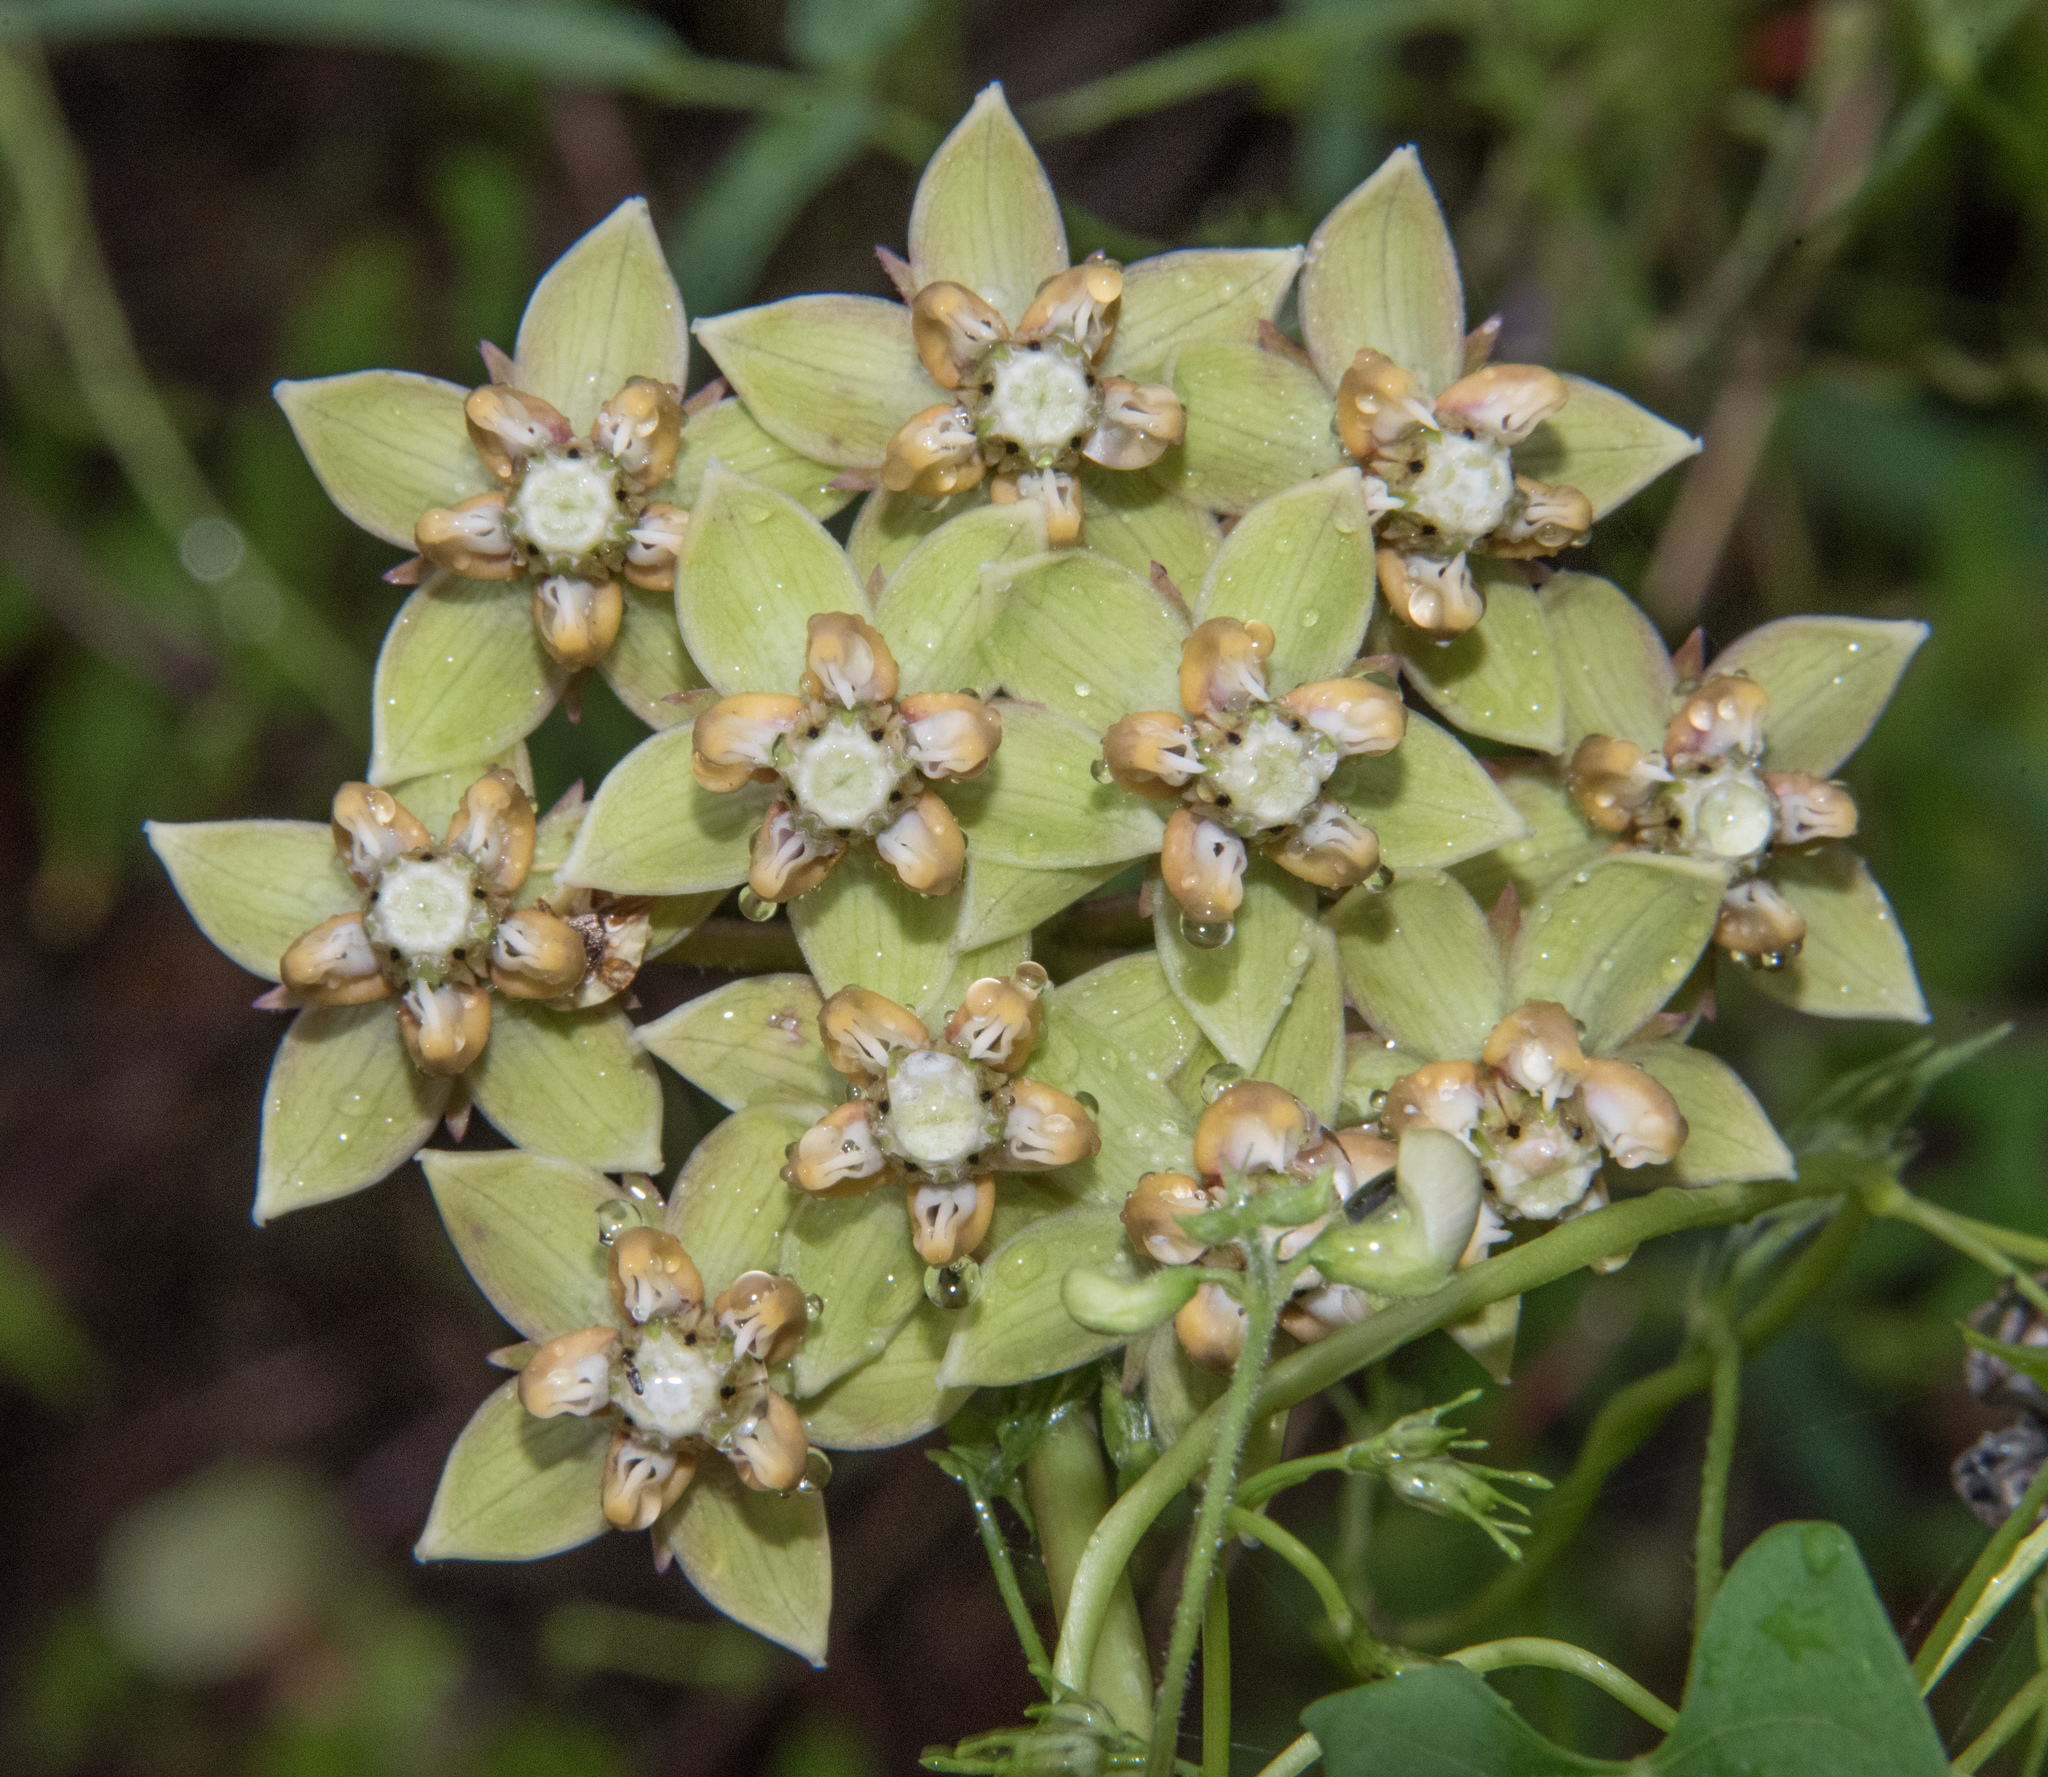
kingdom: Plantae
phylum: Tracheophyta
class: Magnoliopsida
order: Gentianales
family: Apocynaceae
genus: Asclepias
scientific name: Asclepias elata
